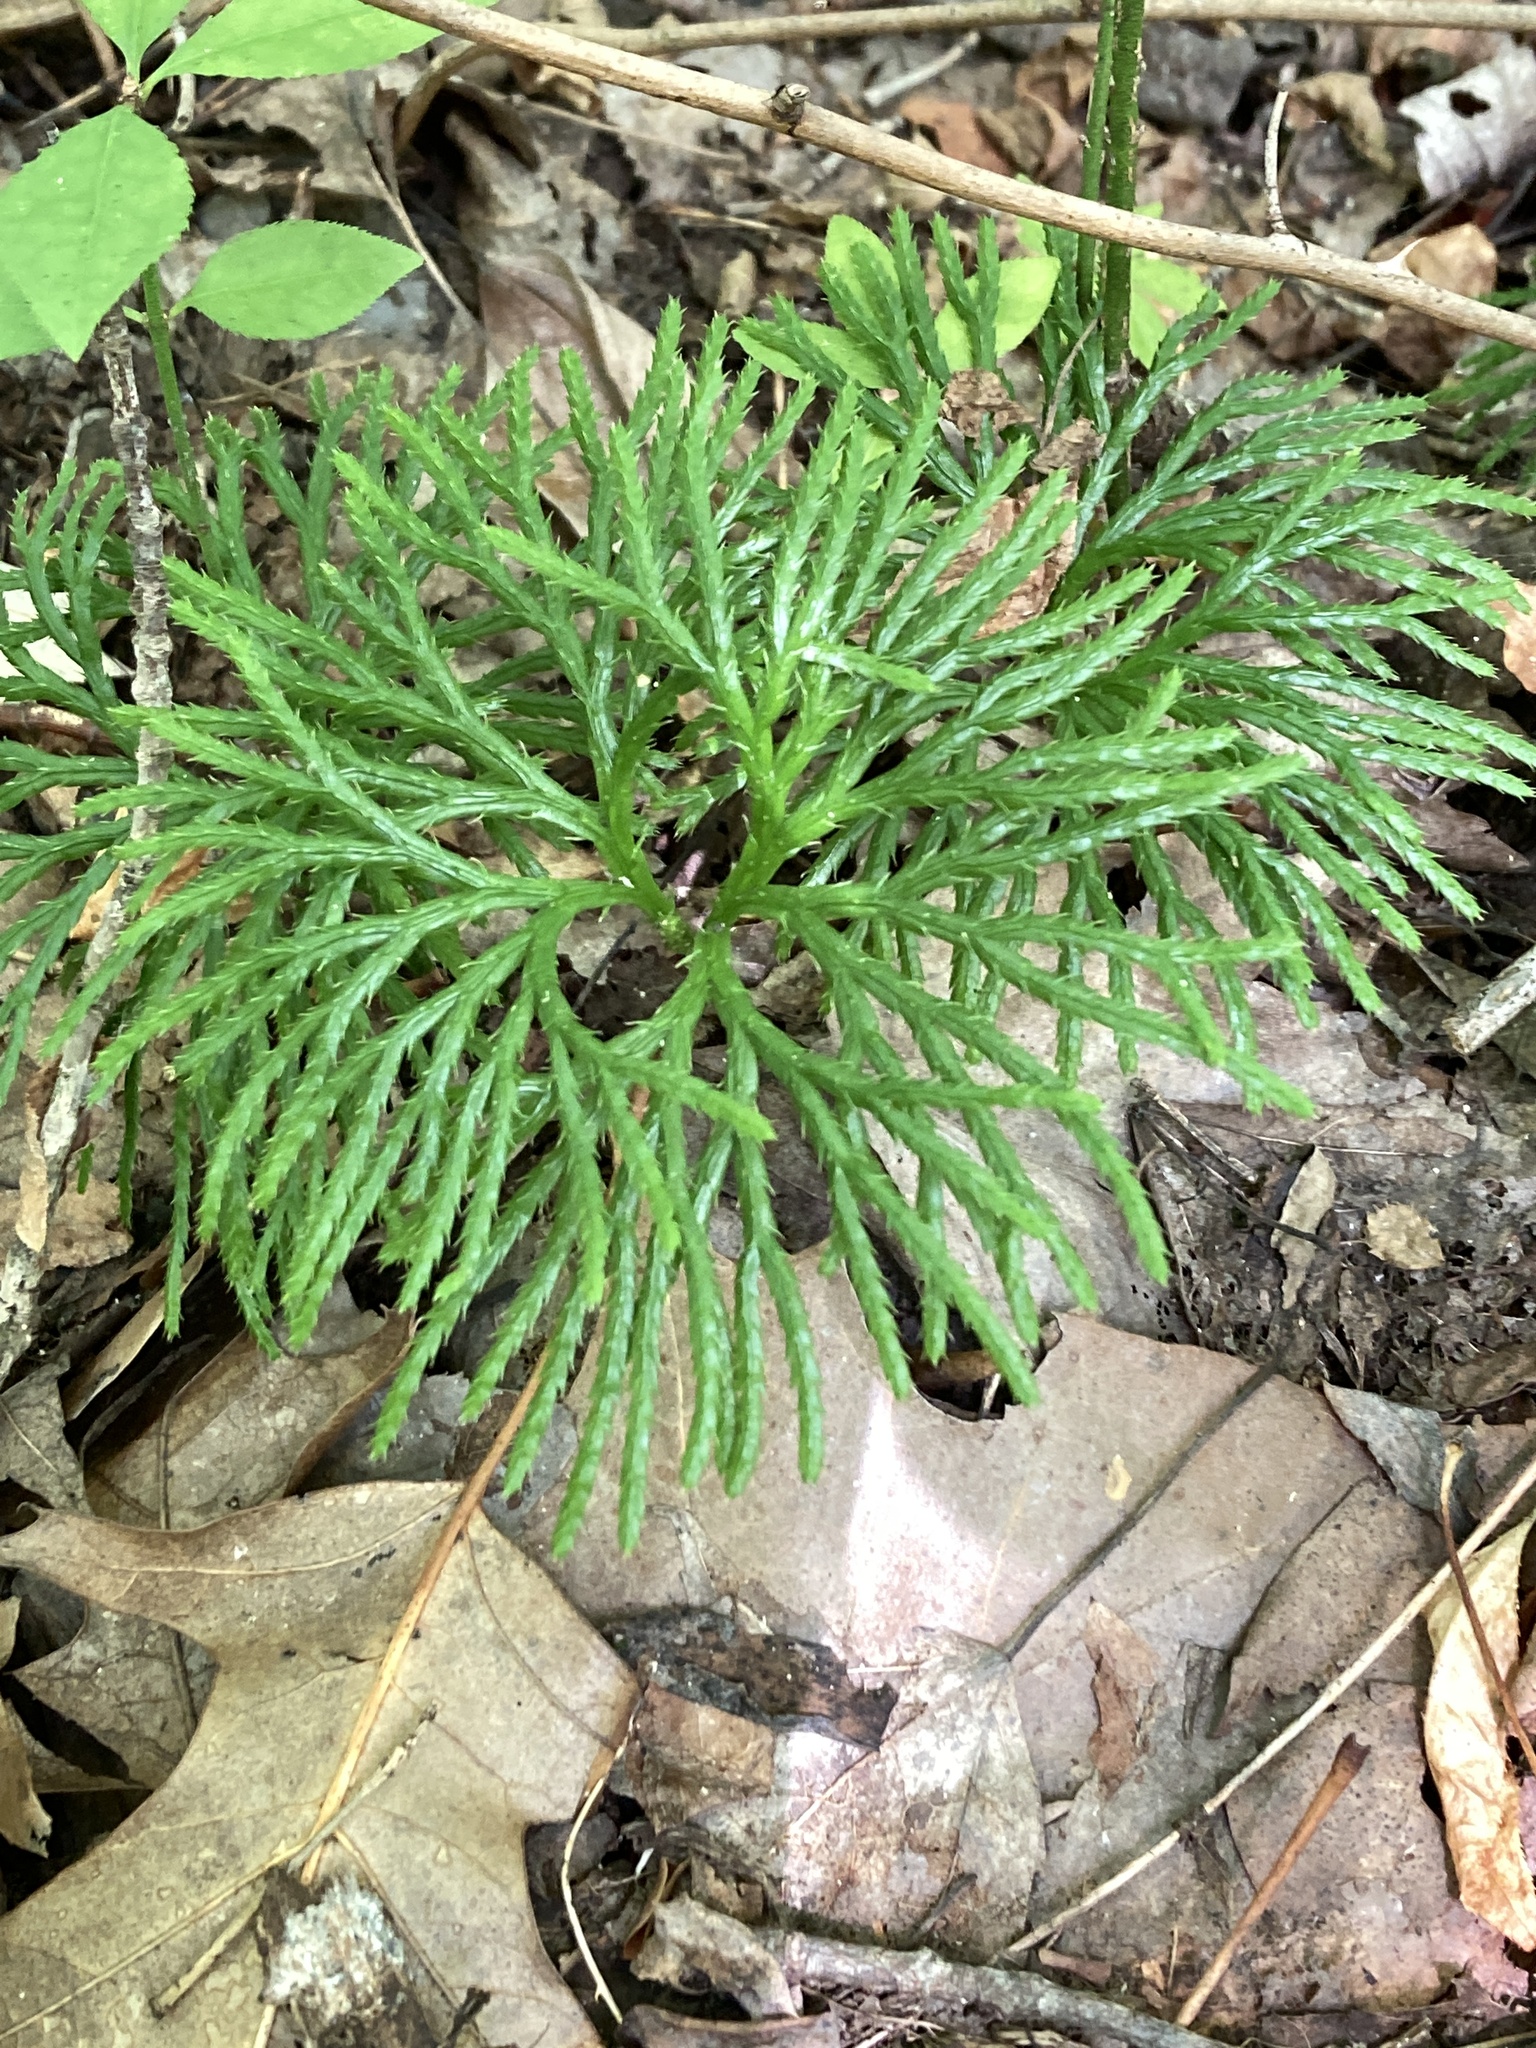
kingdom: Plantae
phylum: Tracheophyta
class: Lycopodiopsida
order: Lycopodiales
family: Lycopodiaceae
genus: Diphasiastrum
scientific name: Diphasiastrum digitatum
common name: Southern running-pine
